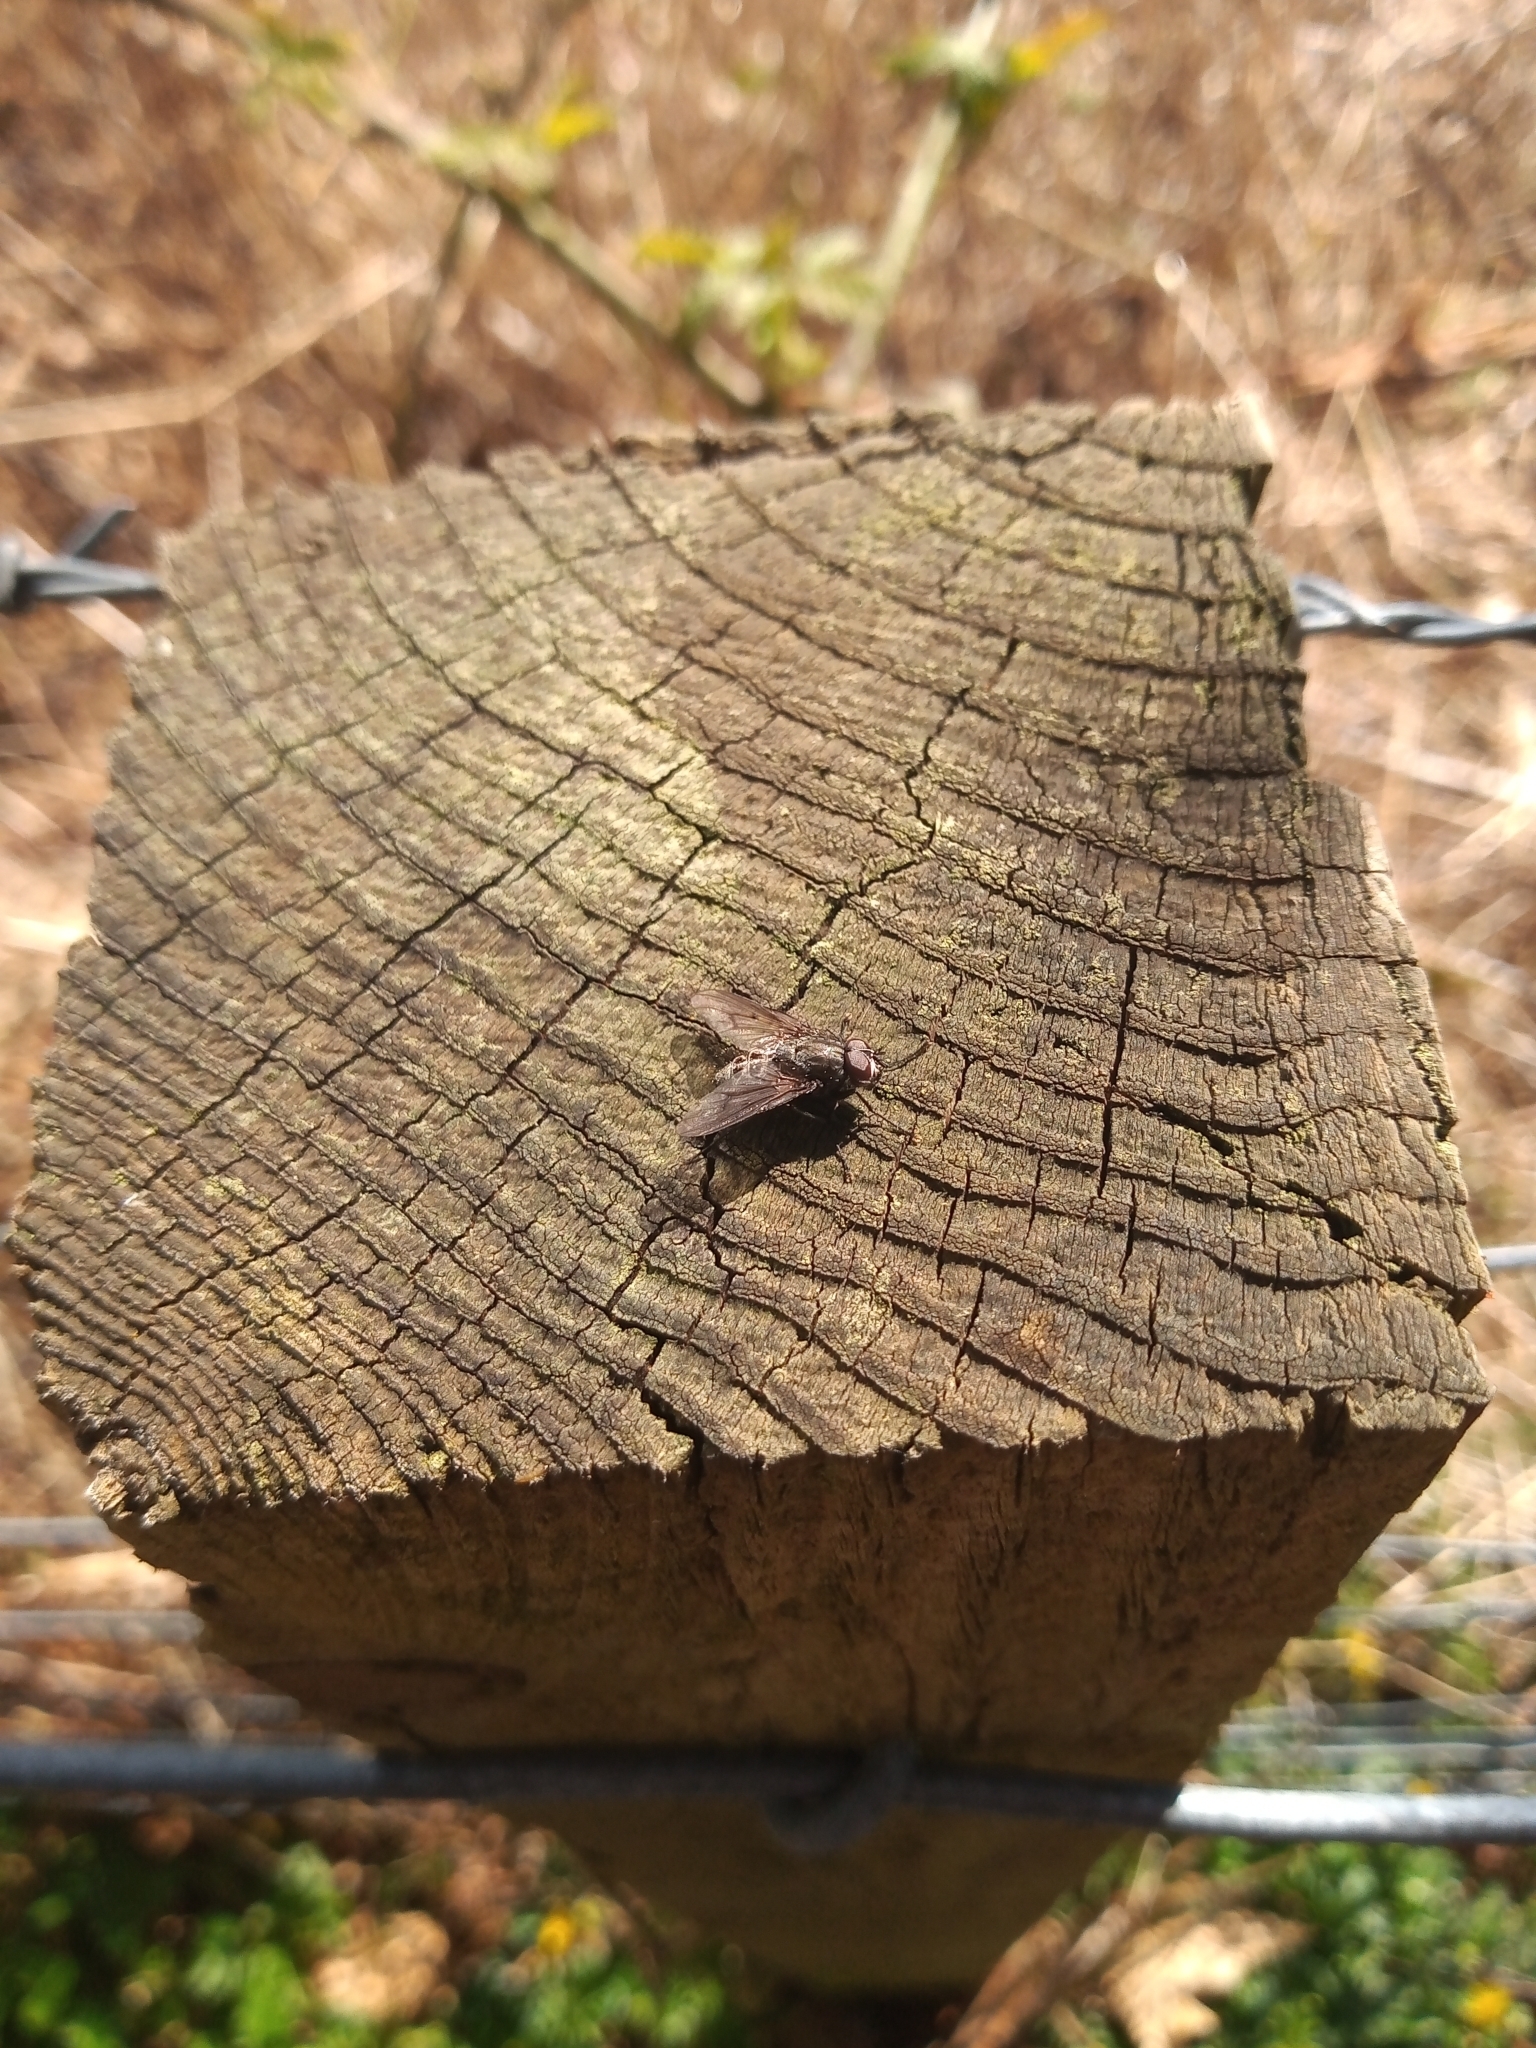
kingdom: Animalia
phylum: Arthropoda
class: Insecta
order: Diptera
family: Muscidae
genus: Helina
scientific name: Helina evecta
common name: Muscid fly
